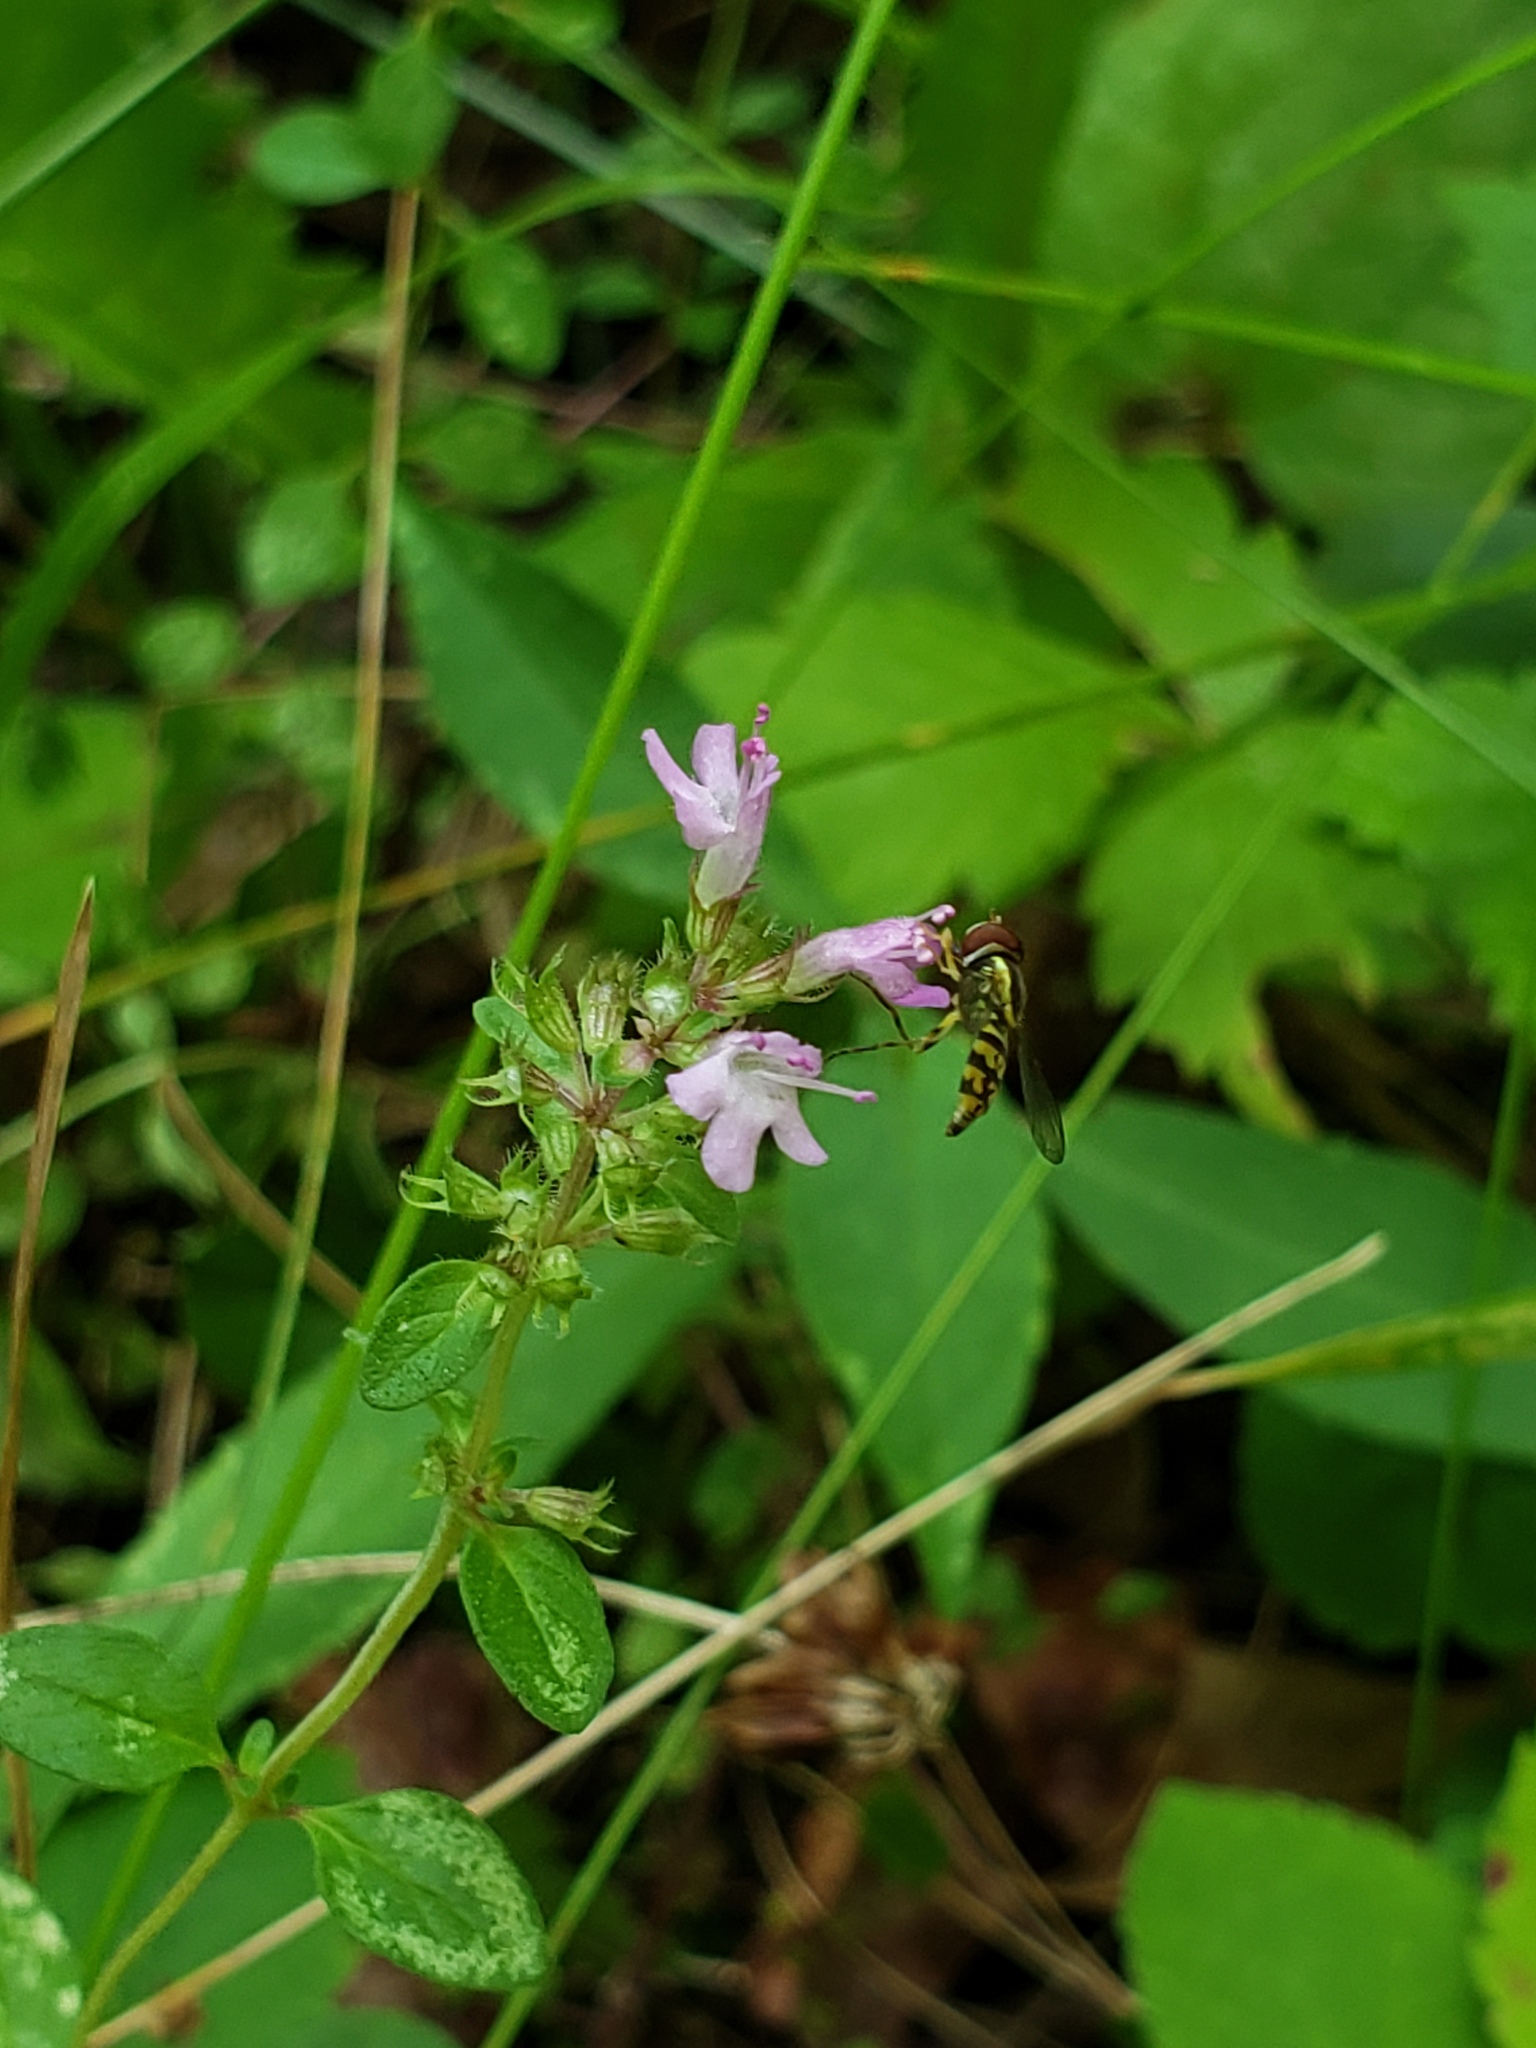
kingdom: Plantae
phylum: Tracheophyta
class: Magnoliopsida
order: Lamiales
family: Lamiaceae
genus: Thymus
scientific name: Thymus pulegioides
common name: Large thyme
